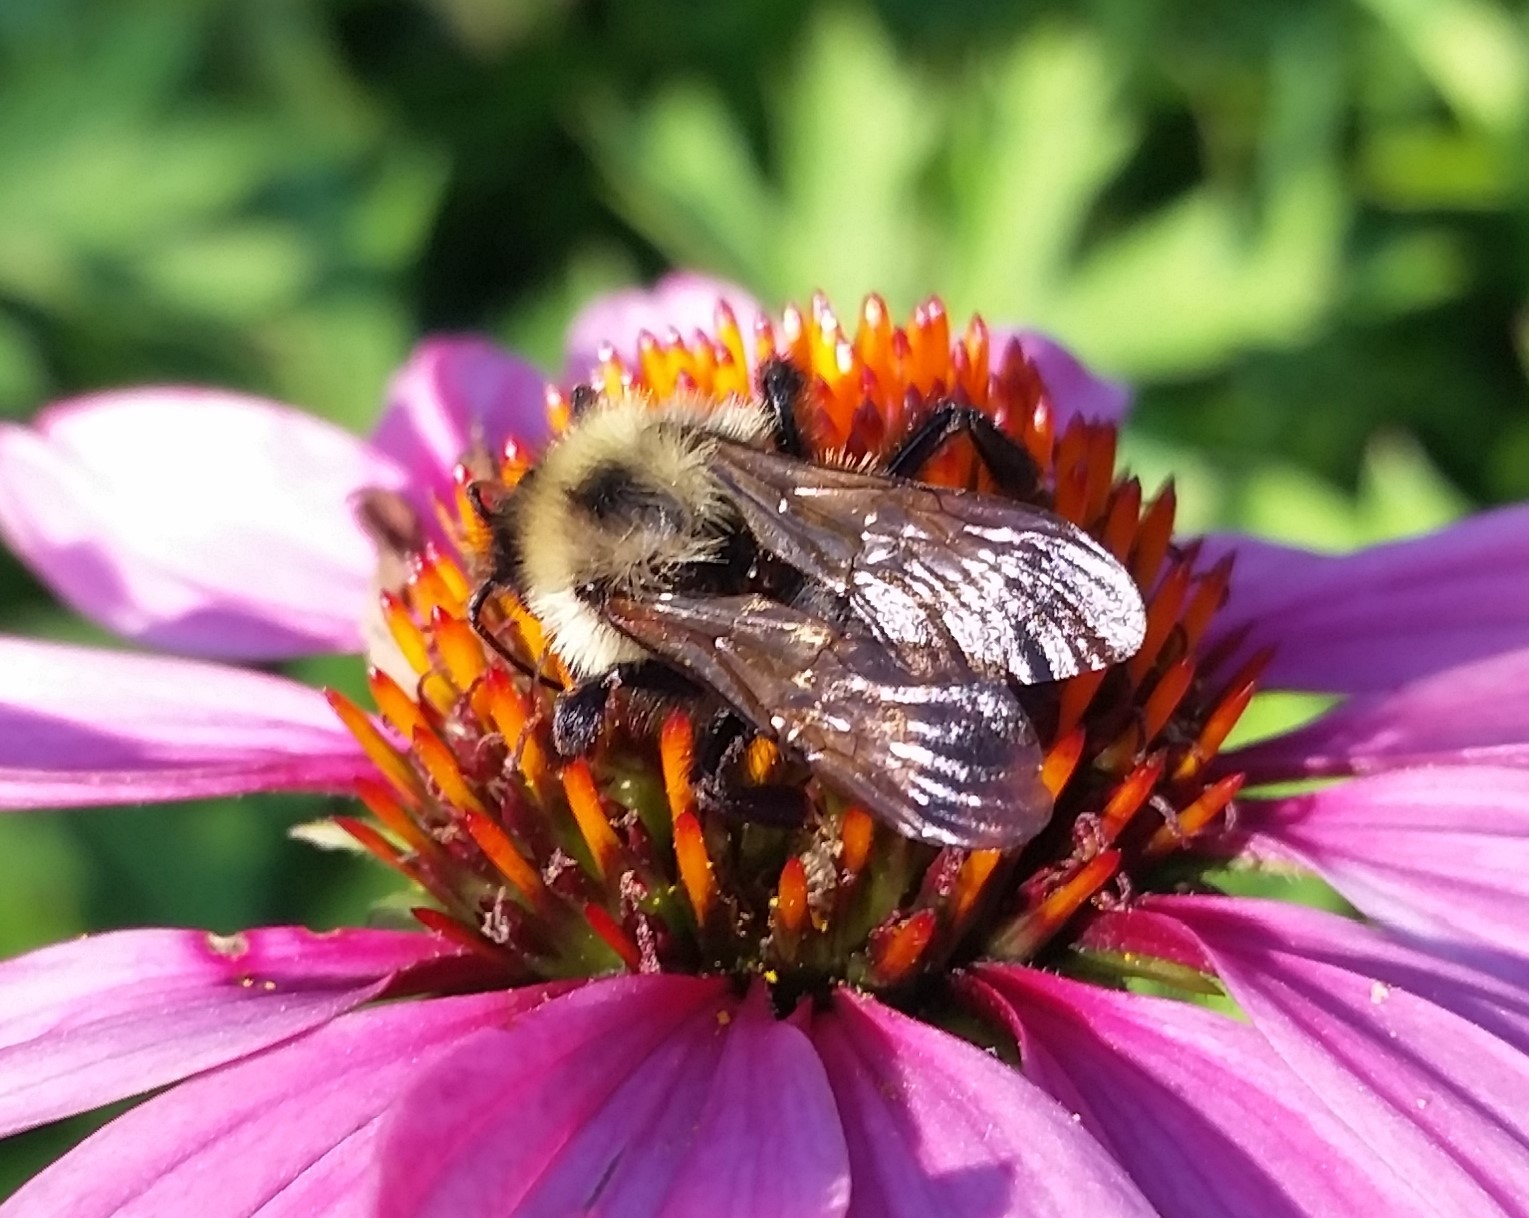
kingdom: Animalia
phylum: Arthropoda
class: Insecta
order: Hymenoptera
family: Apidae
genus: Bombus
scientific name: Bombus citrinus
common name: Lemon cuckoo bumble bee
